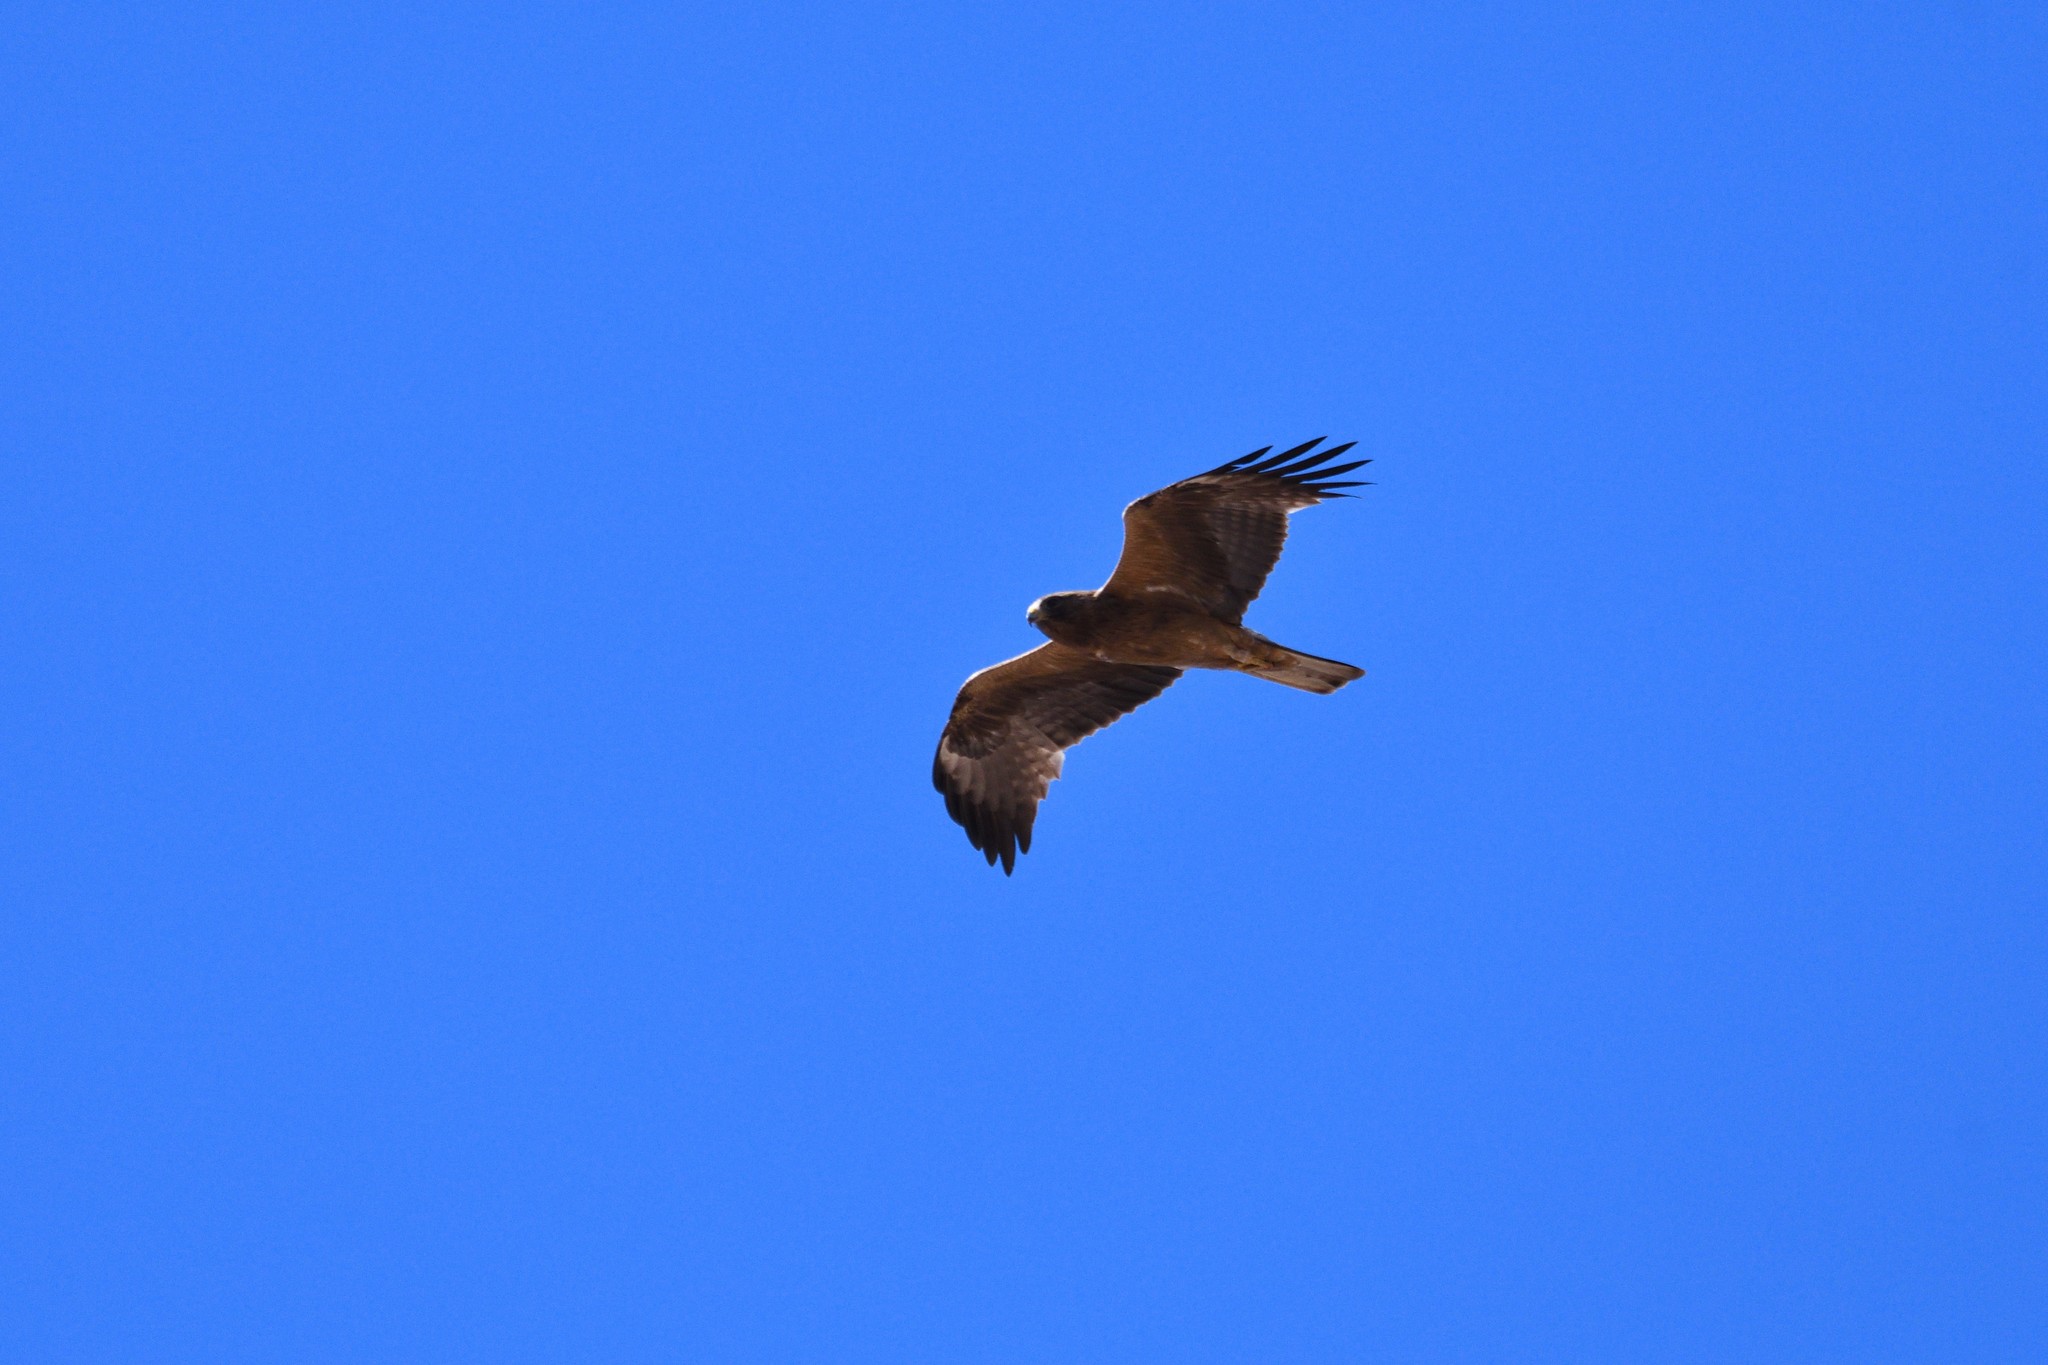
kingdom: Animalia
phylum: Chordata
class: Aves
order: Accipitriformes
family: Accipitridae
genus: Hieraaetus
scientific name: Hieraaetus pennatus
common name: Booted eagle
